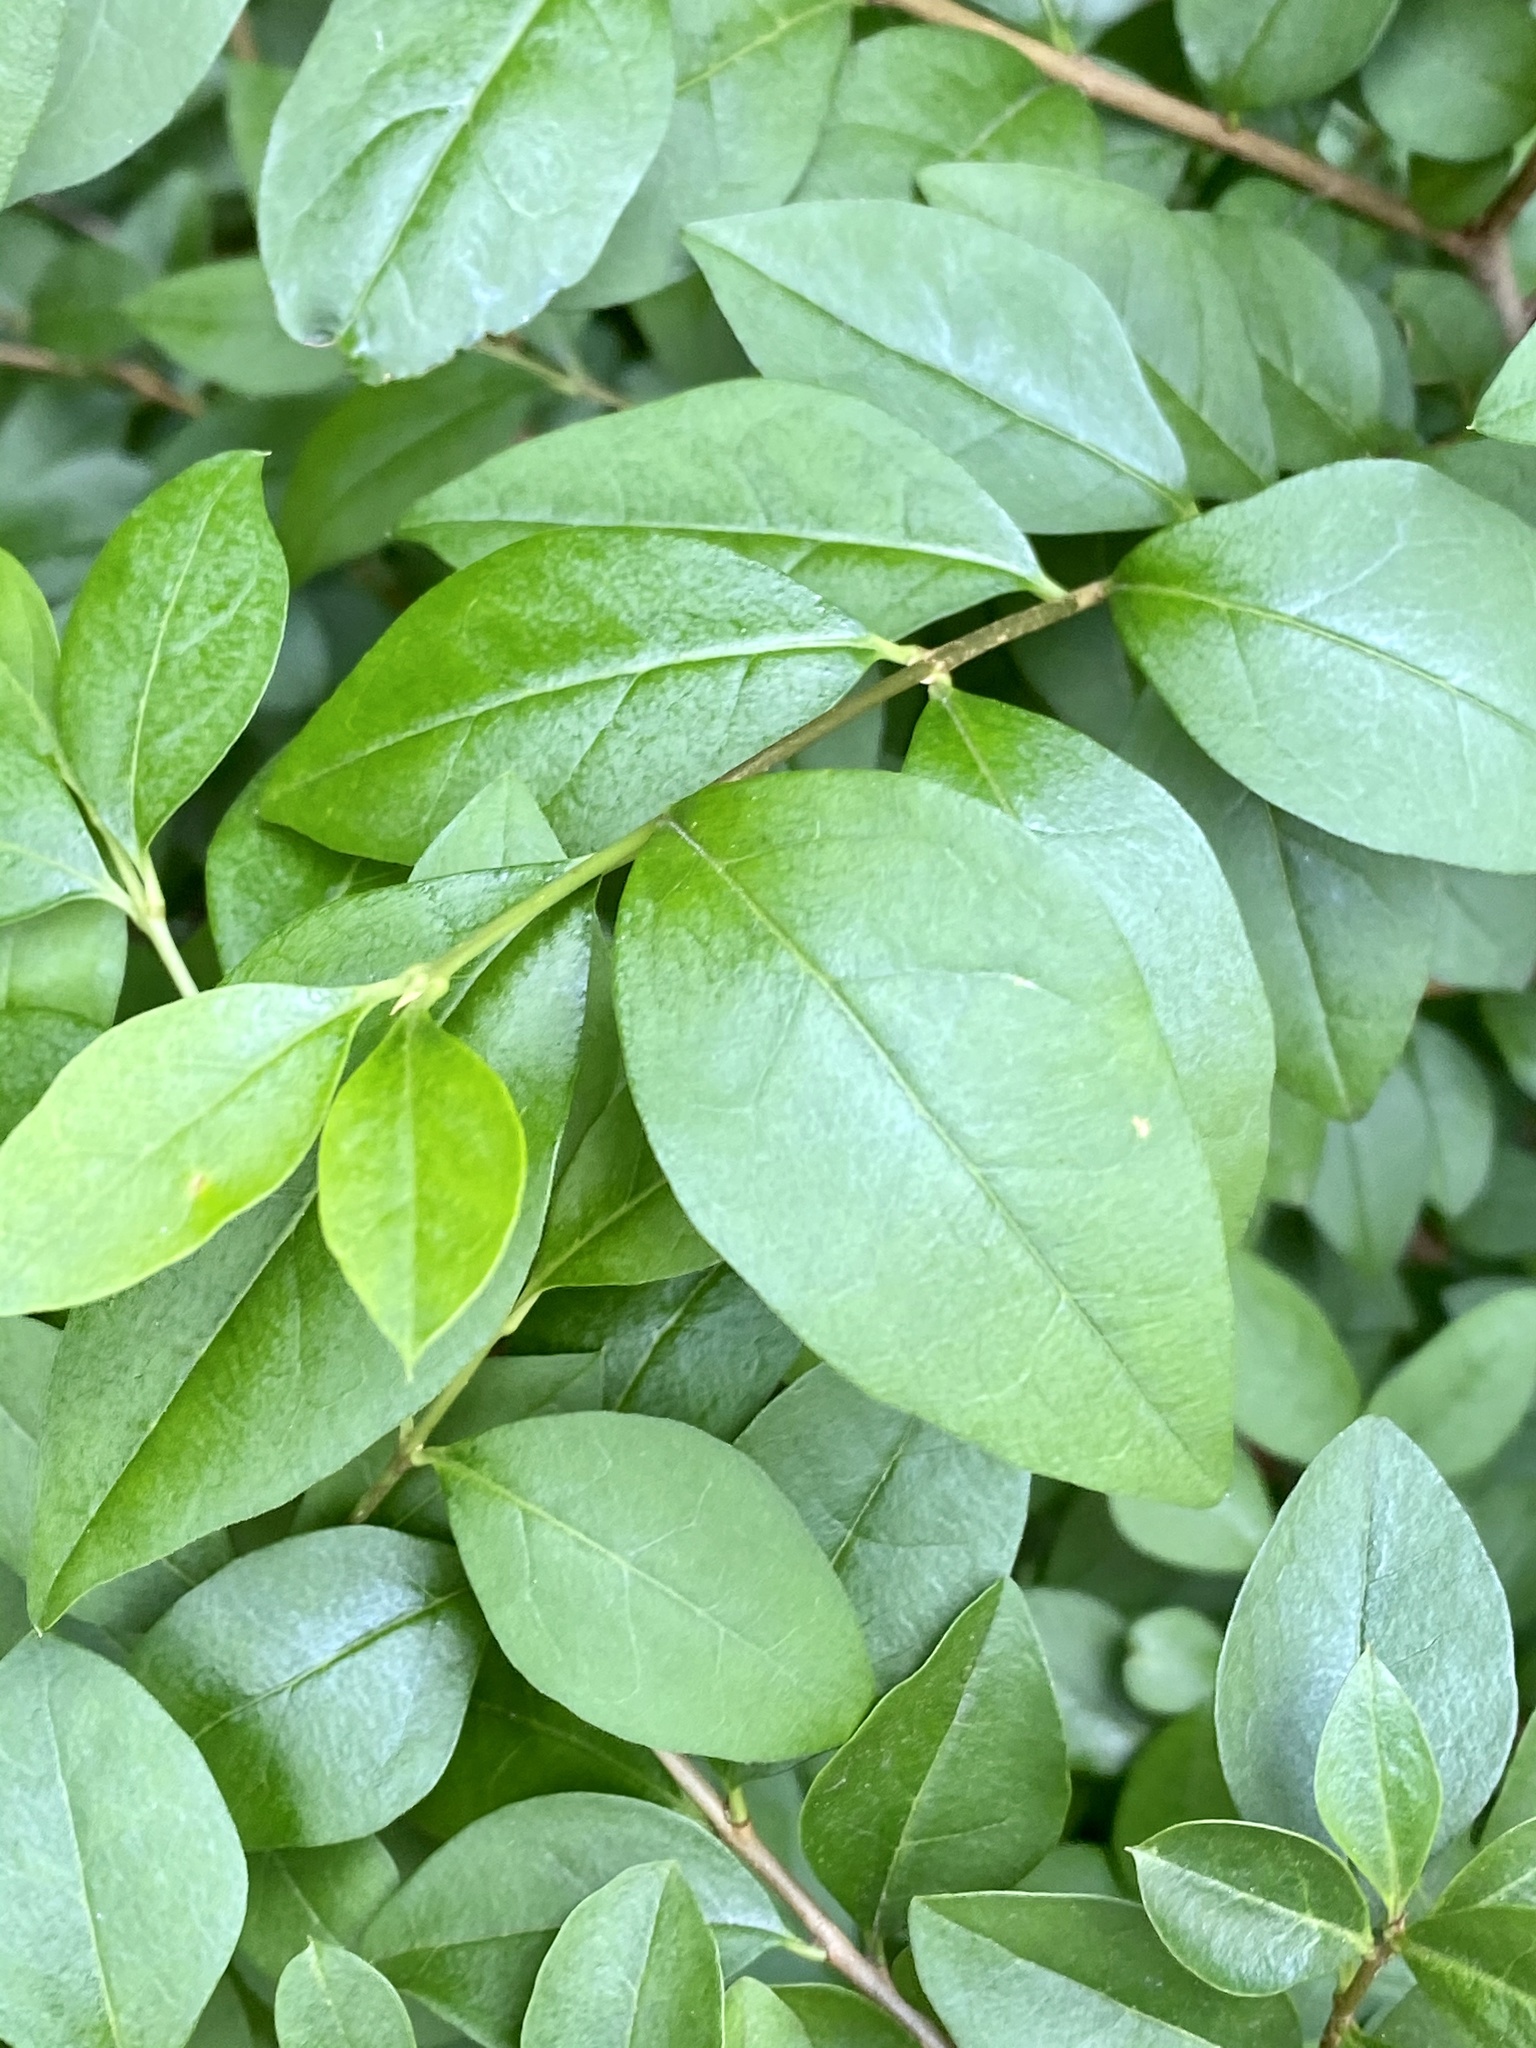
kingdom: Plantae
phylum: Tracheophyta
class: Magnoliopsida
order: Lamiales
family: Oleaceae
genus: Ligustrum
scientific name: Ligustrum ovalifolium
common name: California privet
